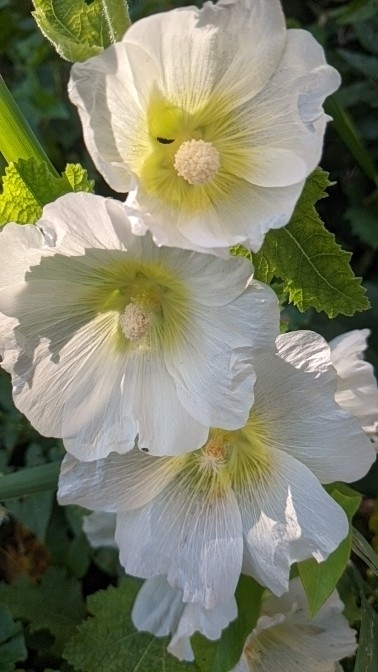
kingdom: Plantae
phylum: Tracheophyta
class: Magnoliopsida
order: Malvales
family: Malvaceae
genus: Alcea
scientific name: Alcea rosea
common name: Hollyhock
